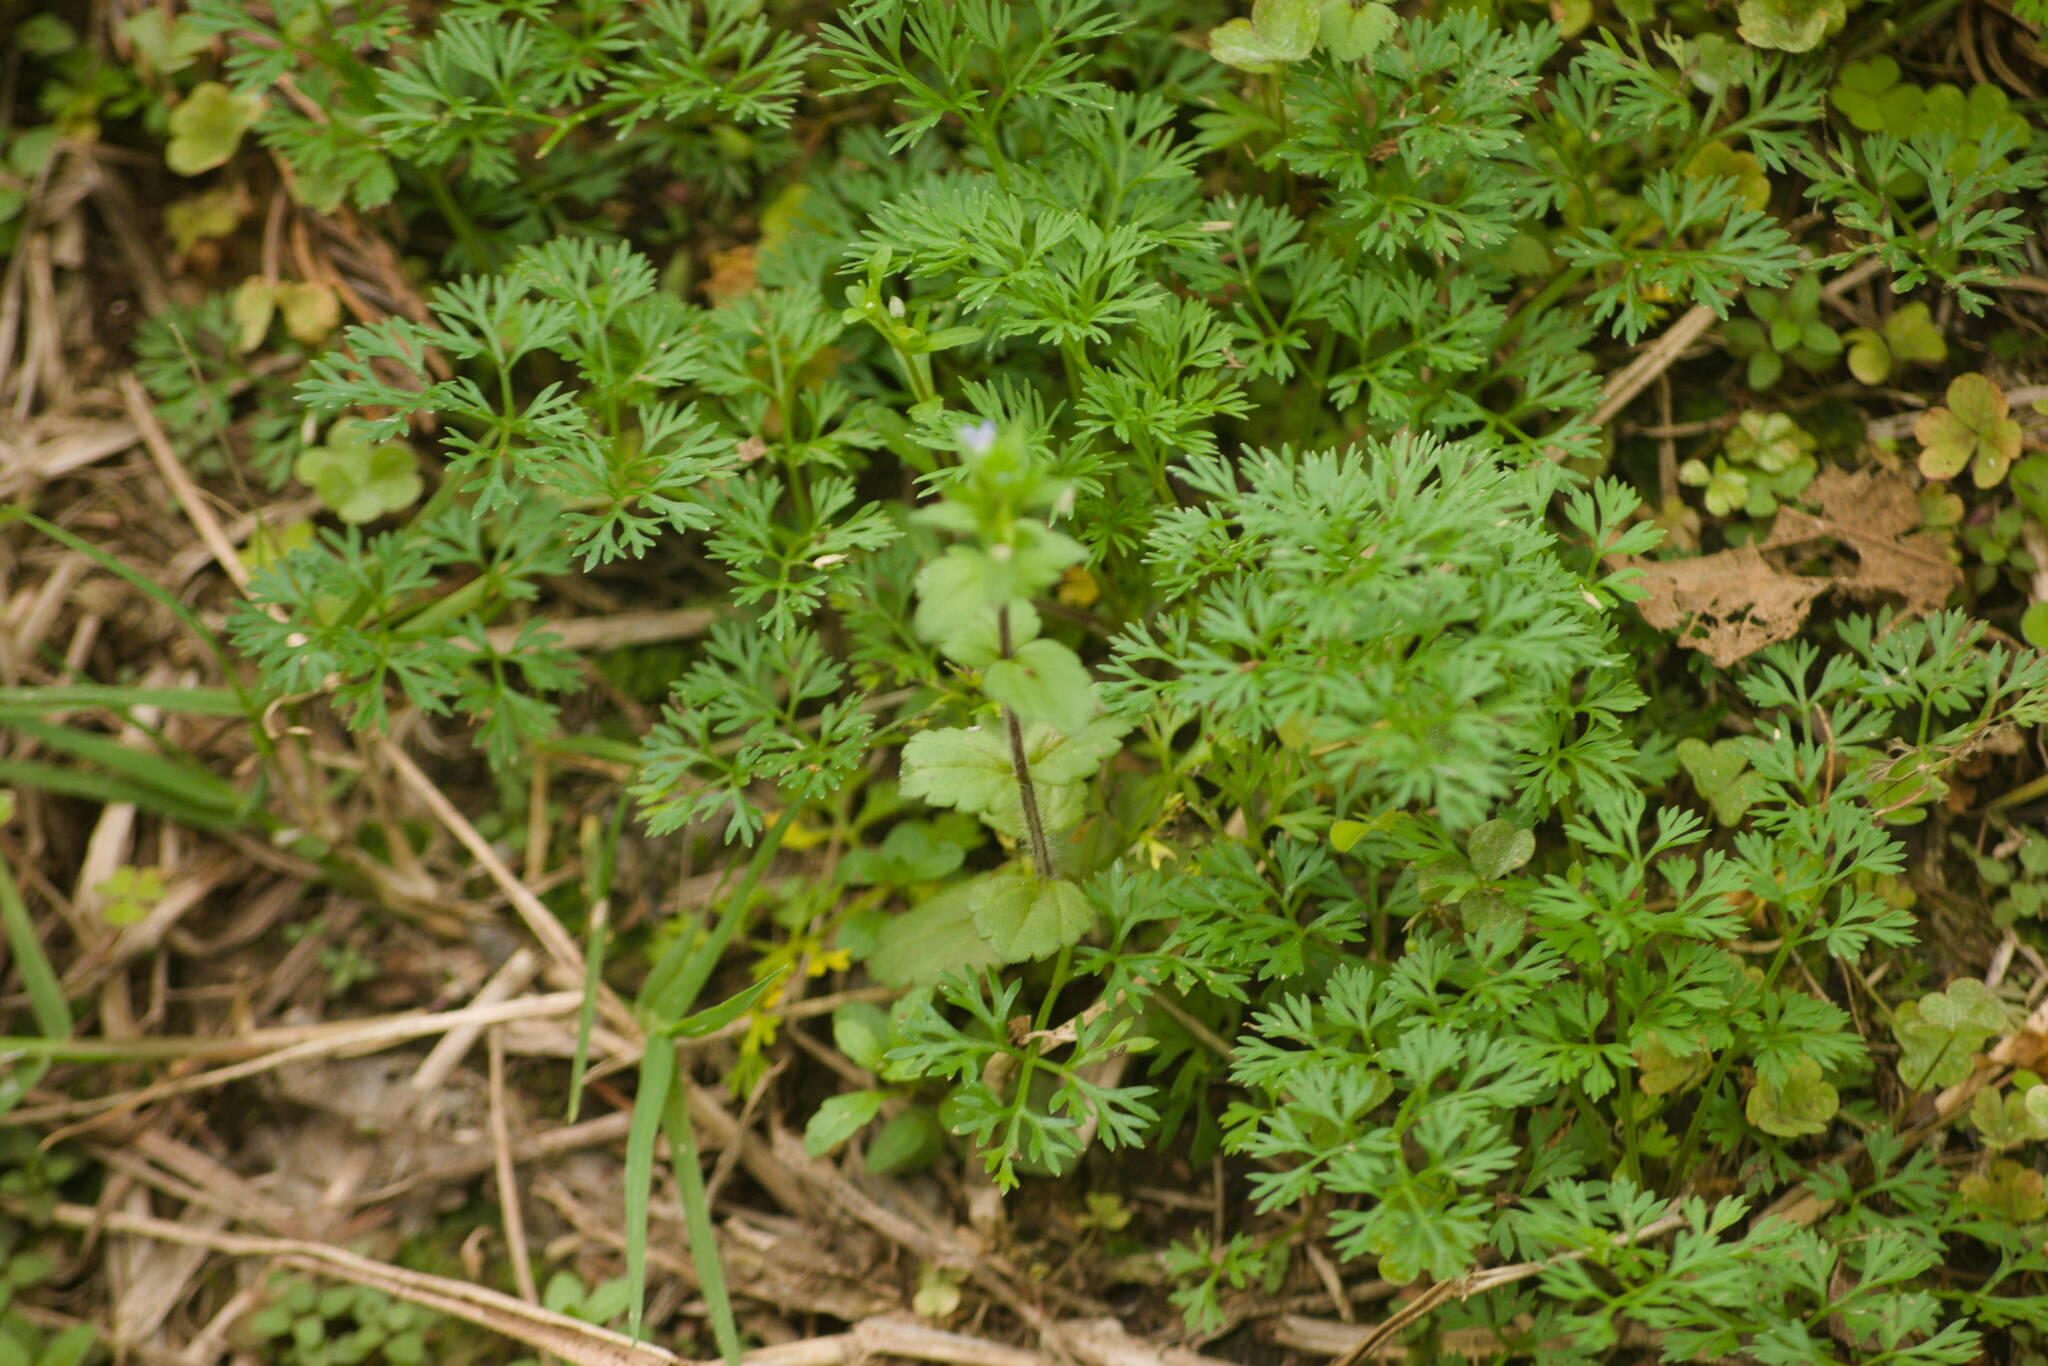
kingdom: Plantae
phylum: Tracheophyta
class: Magnoliopsida
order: Lamiales
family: Plantaginaceae
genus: Veronica
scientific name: Veronica arvensis
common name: Corn speedwell
